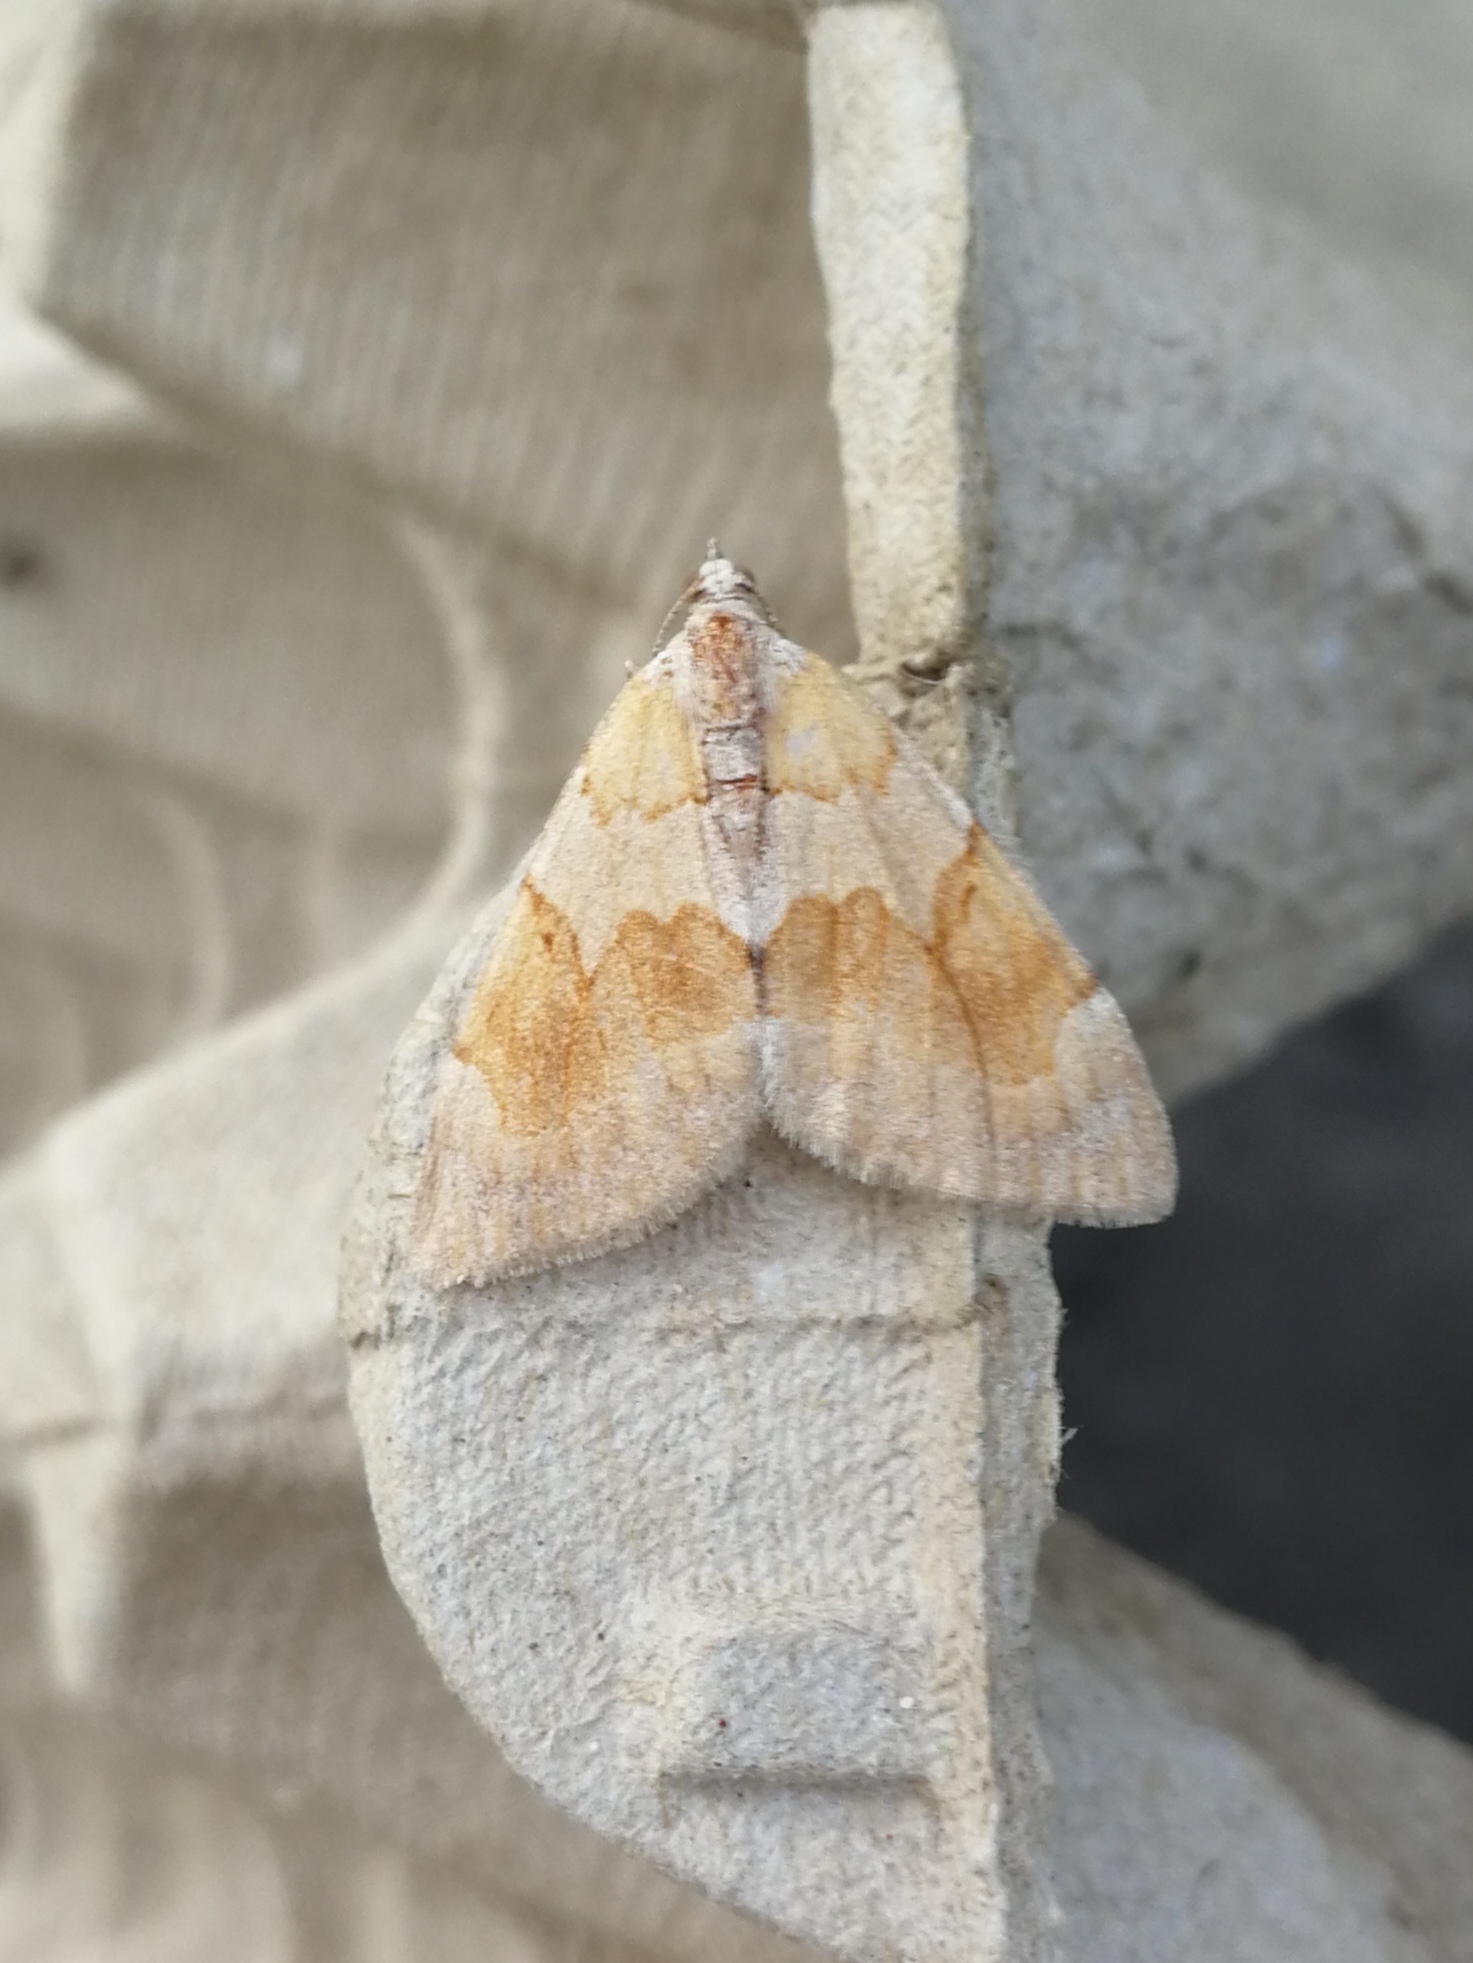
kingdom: Animalia
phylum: Arthropoda
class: Insecta
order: Lepidoptera
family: Geometridae
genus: Pennithera
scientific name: Pennithera firmata
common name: Pine carpet
